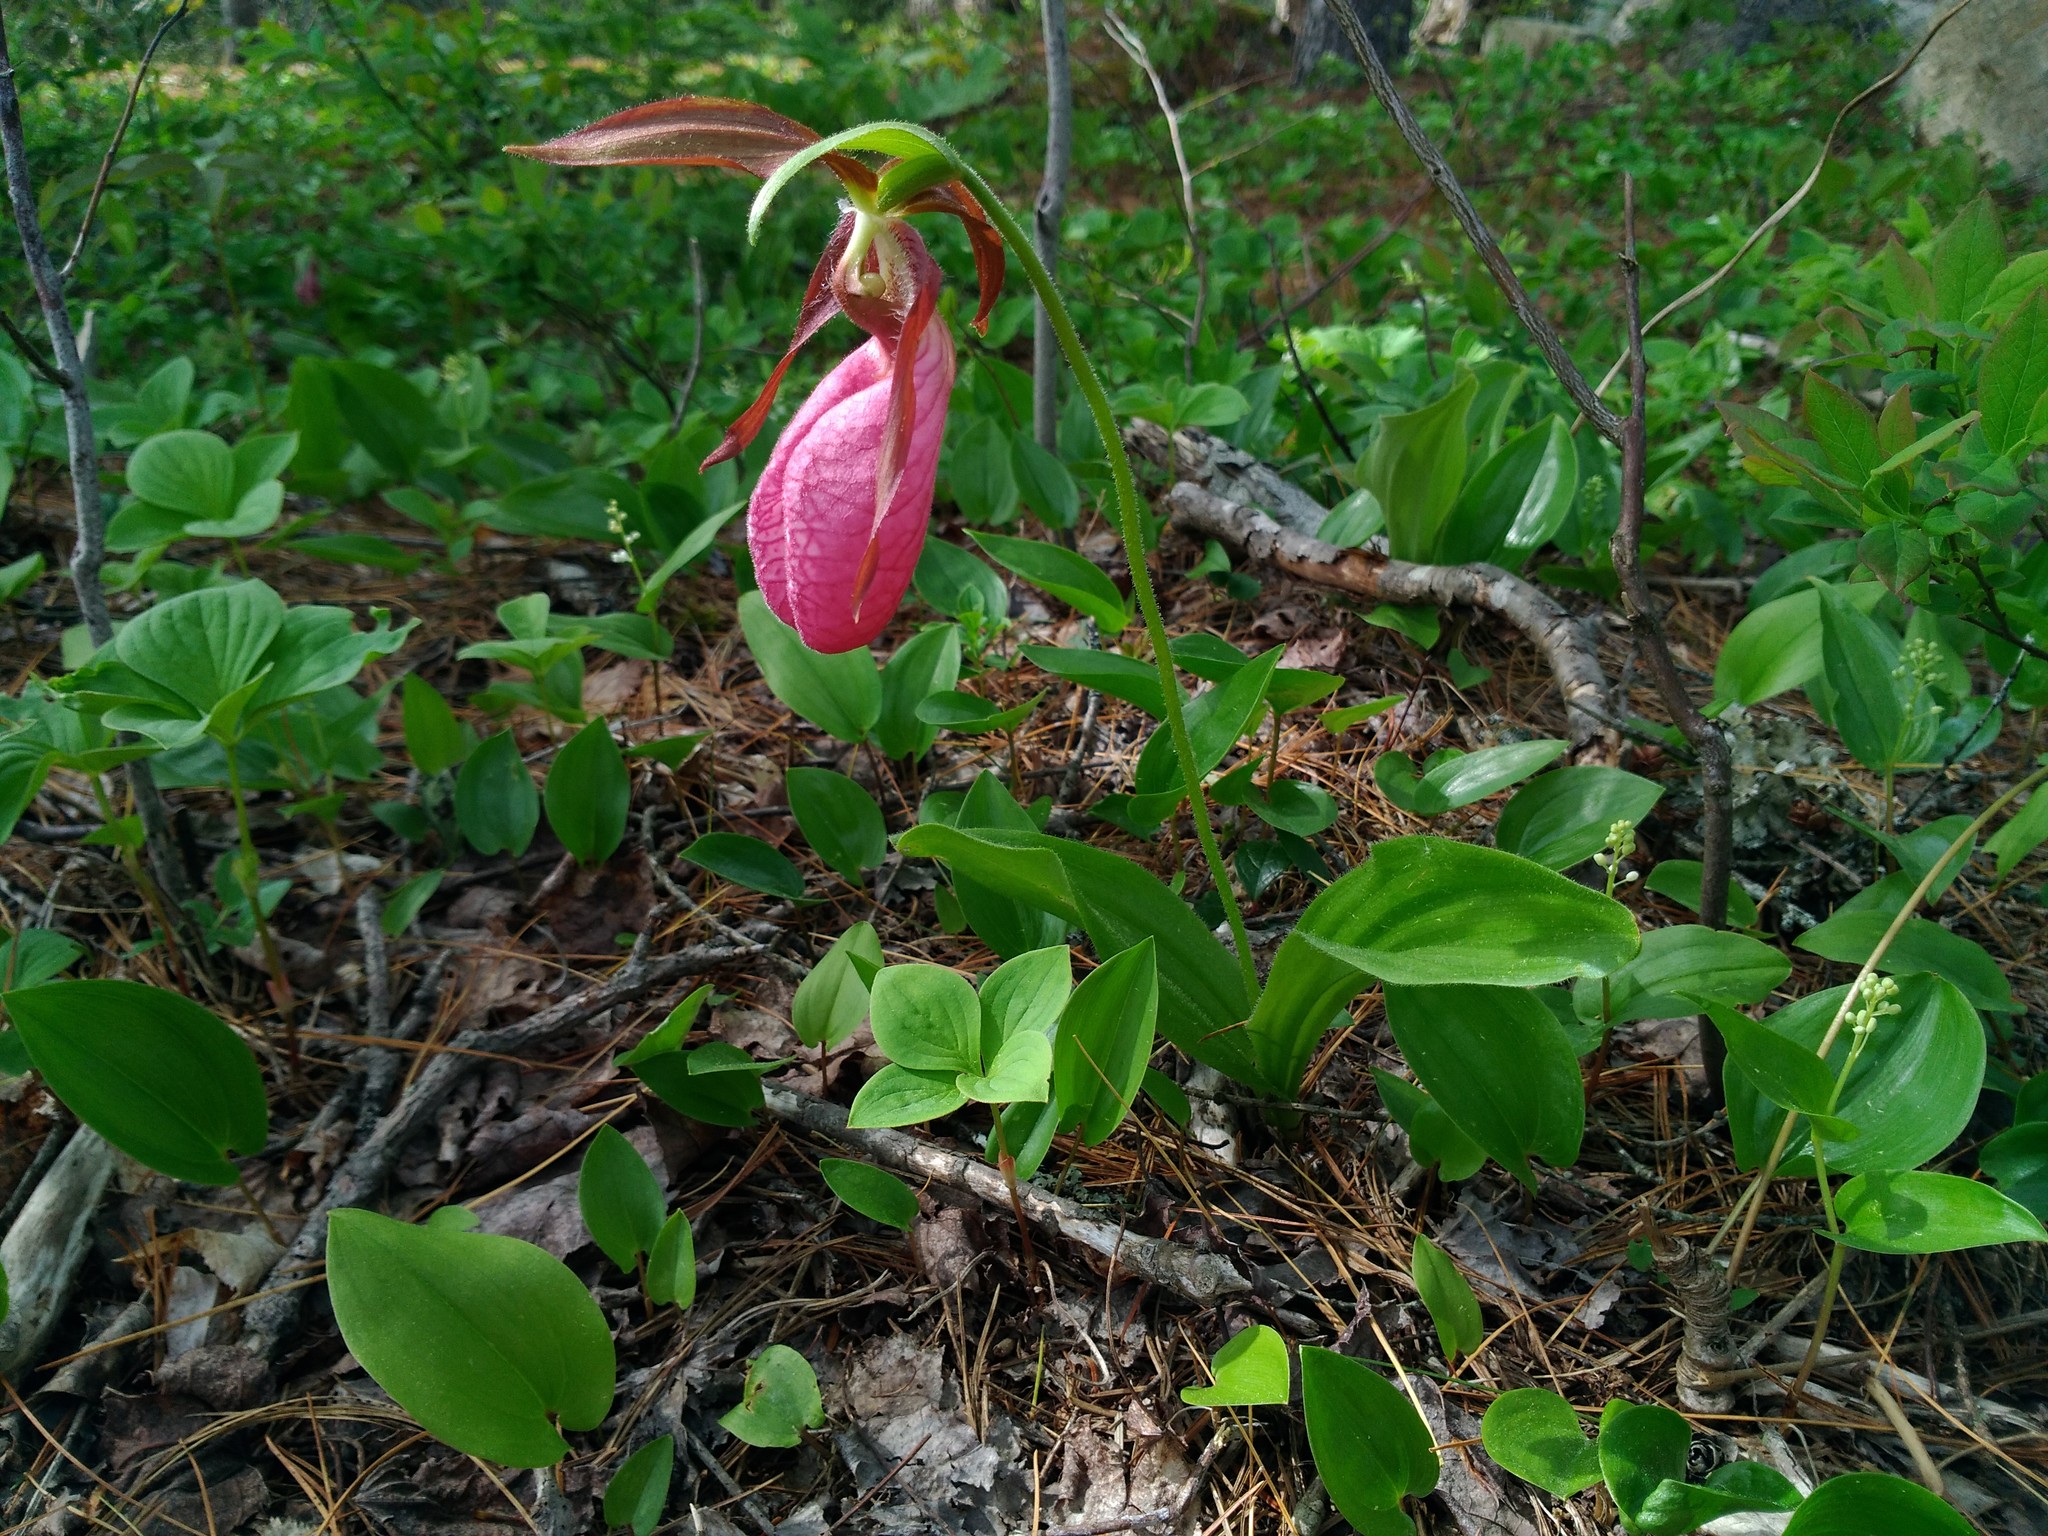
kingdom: Plantae
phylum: Tracheophyta
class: Liliopsida
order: Asparagales
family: Orchidaceae
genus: Cypripedium
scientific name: Cypripedium acaule
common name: Pink lady's-slipper
